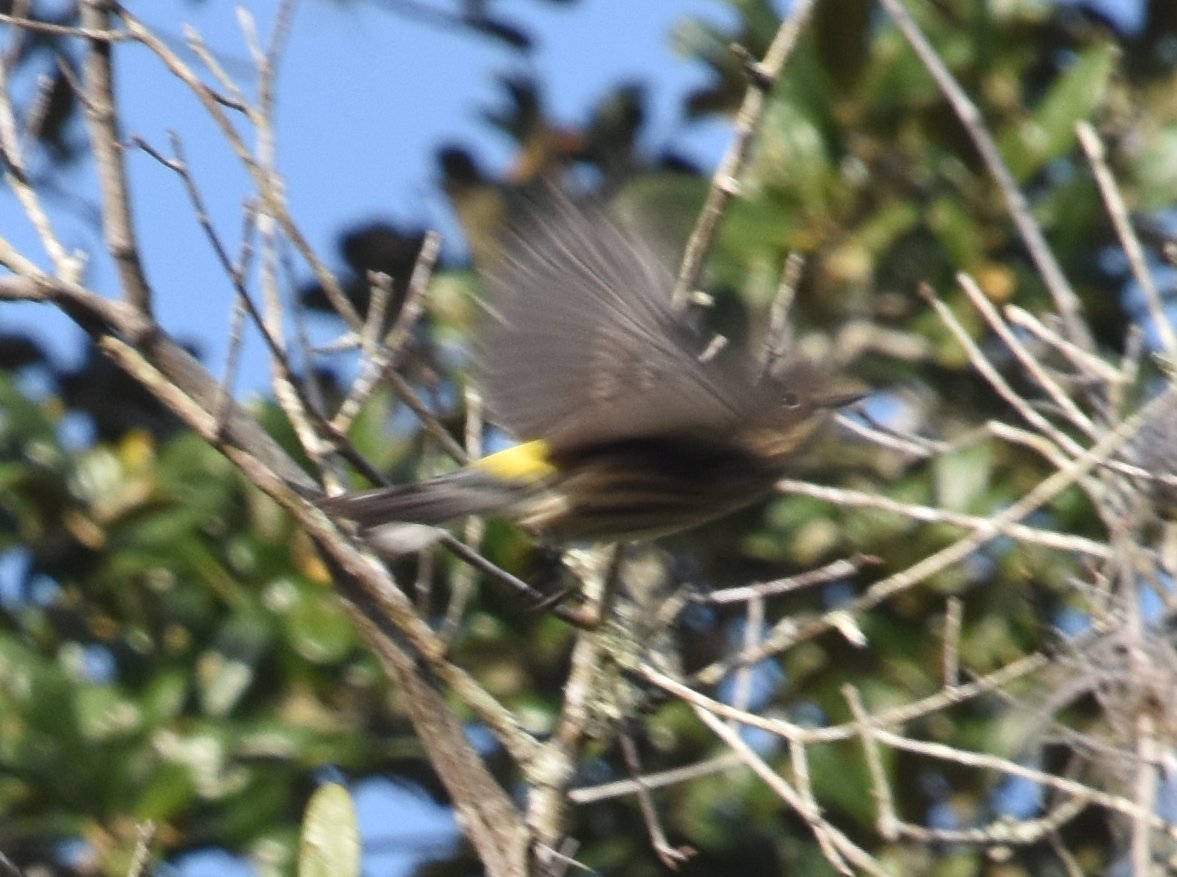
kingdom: Animalia
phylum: Chordata
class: Aves
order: Passeriformes
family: Parulidae
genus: Setophaga
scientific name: Setophaga coronata
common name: Myrtle warbler
